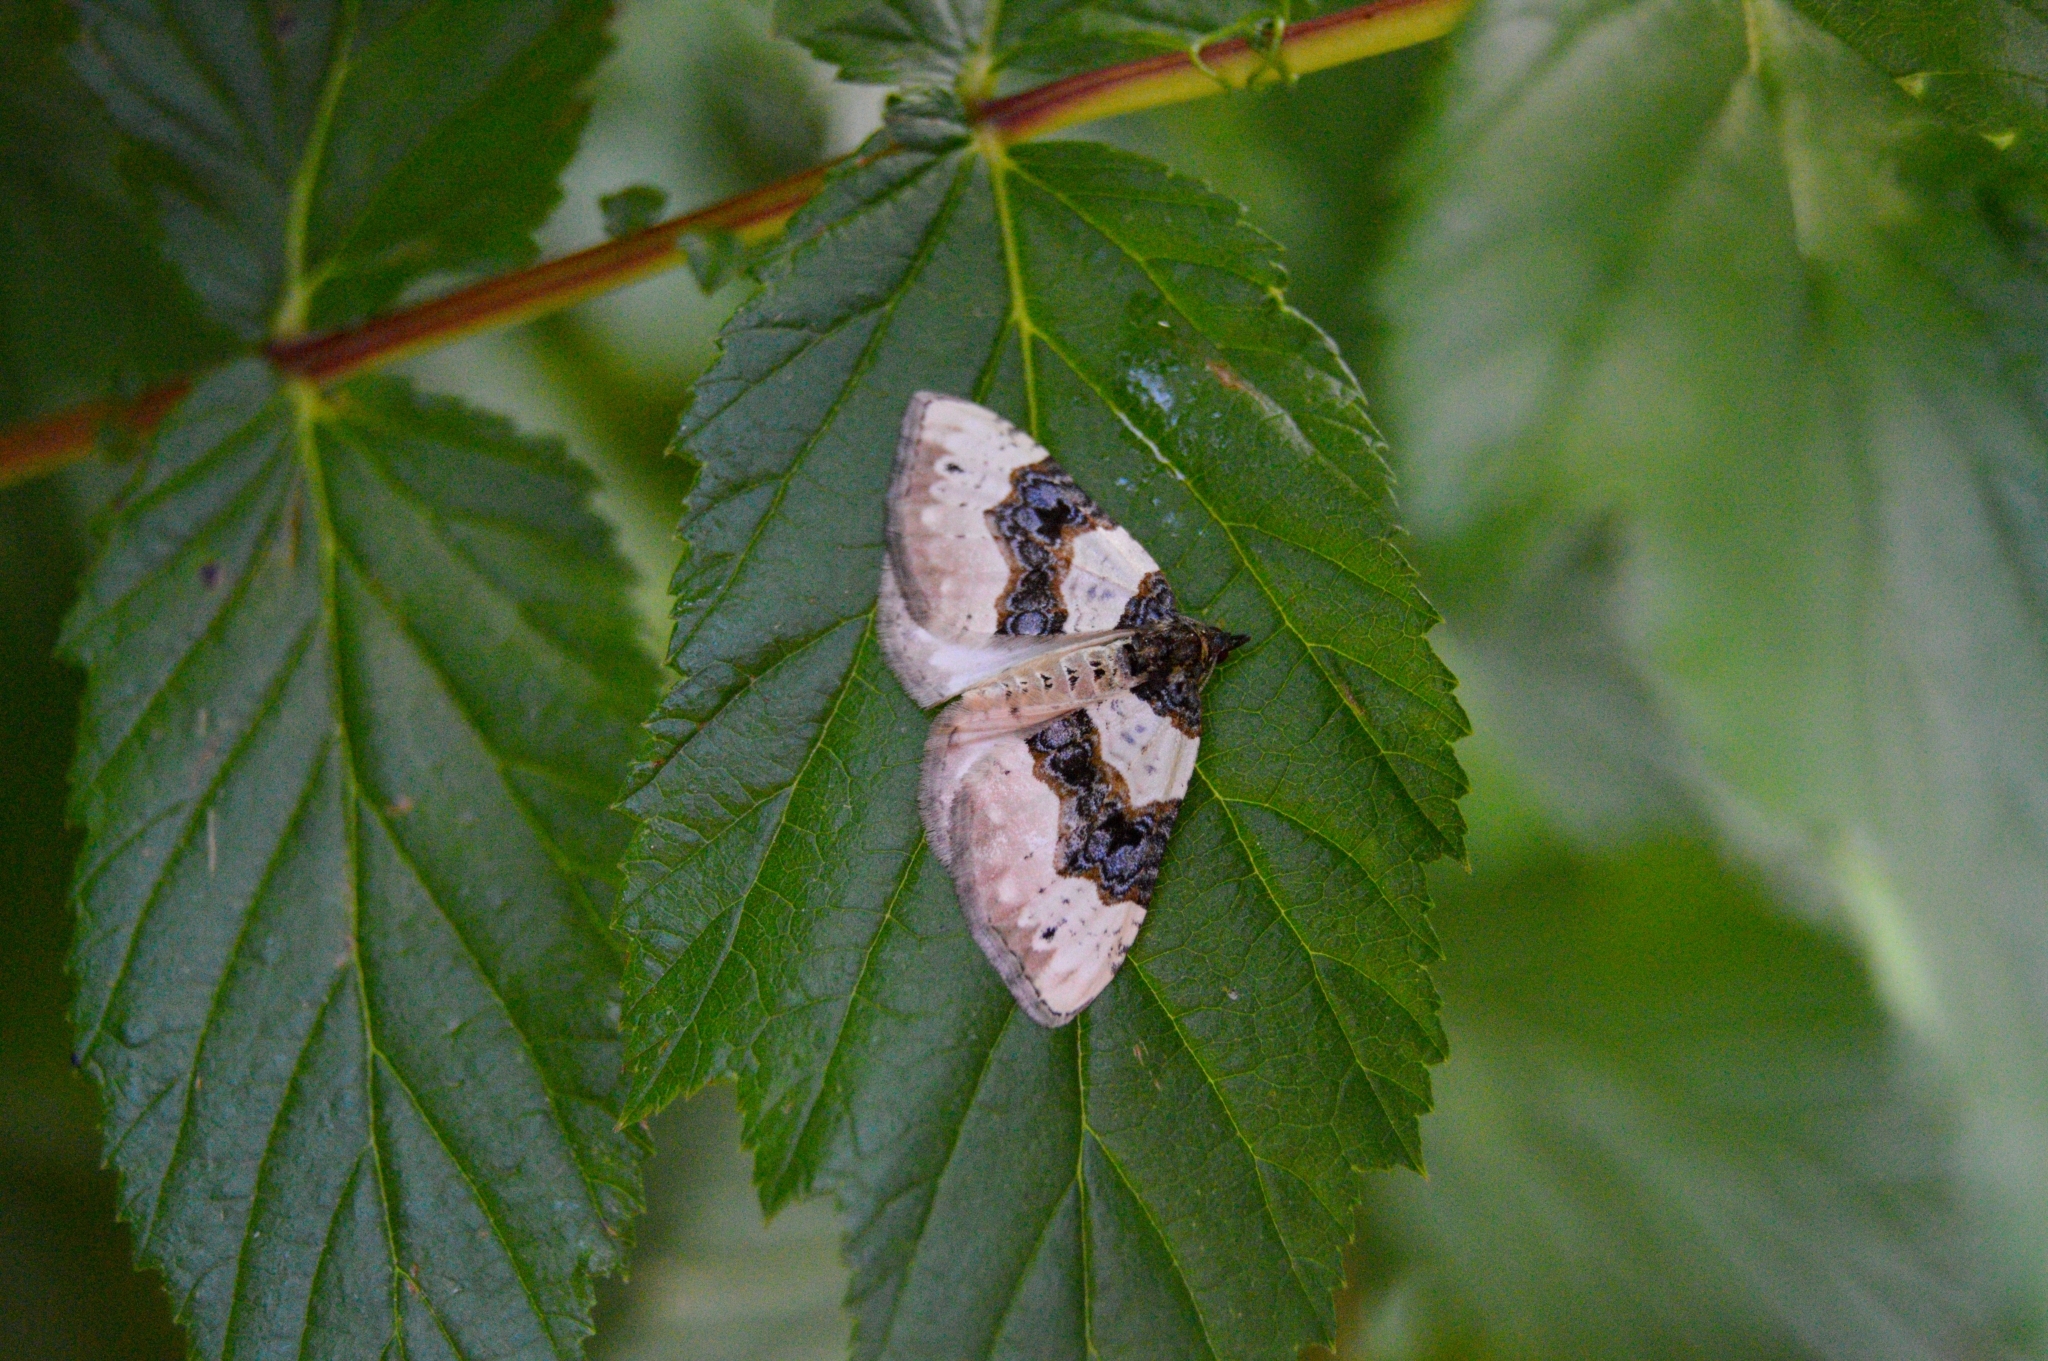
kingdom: Animalia
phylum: Arthropoda
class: Insecta
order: Lepidoptera
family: Geometridae
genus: Cosmorhoe
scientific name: Cosmorhoe ocellata
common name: Purple bar
